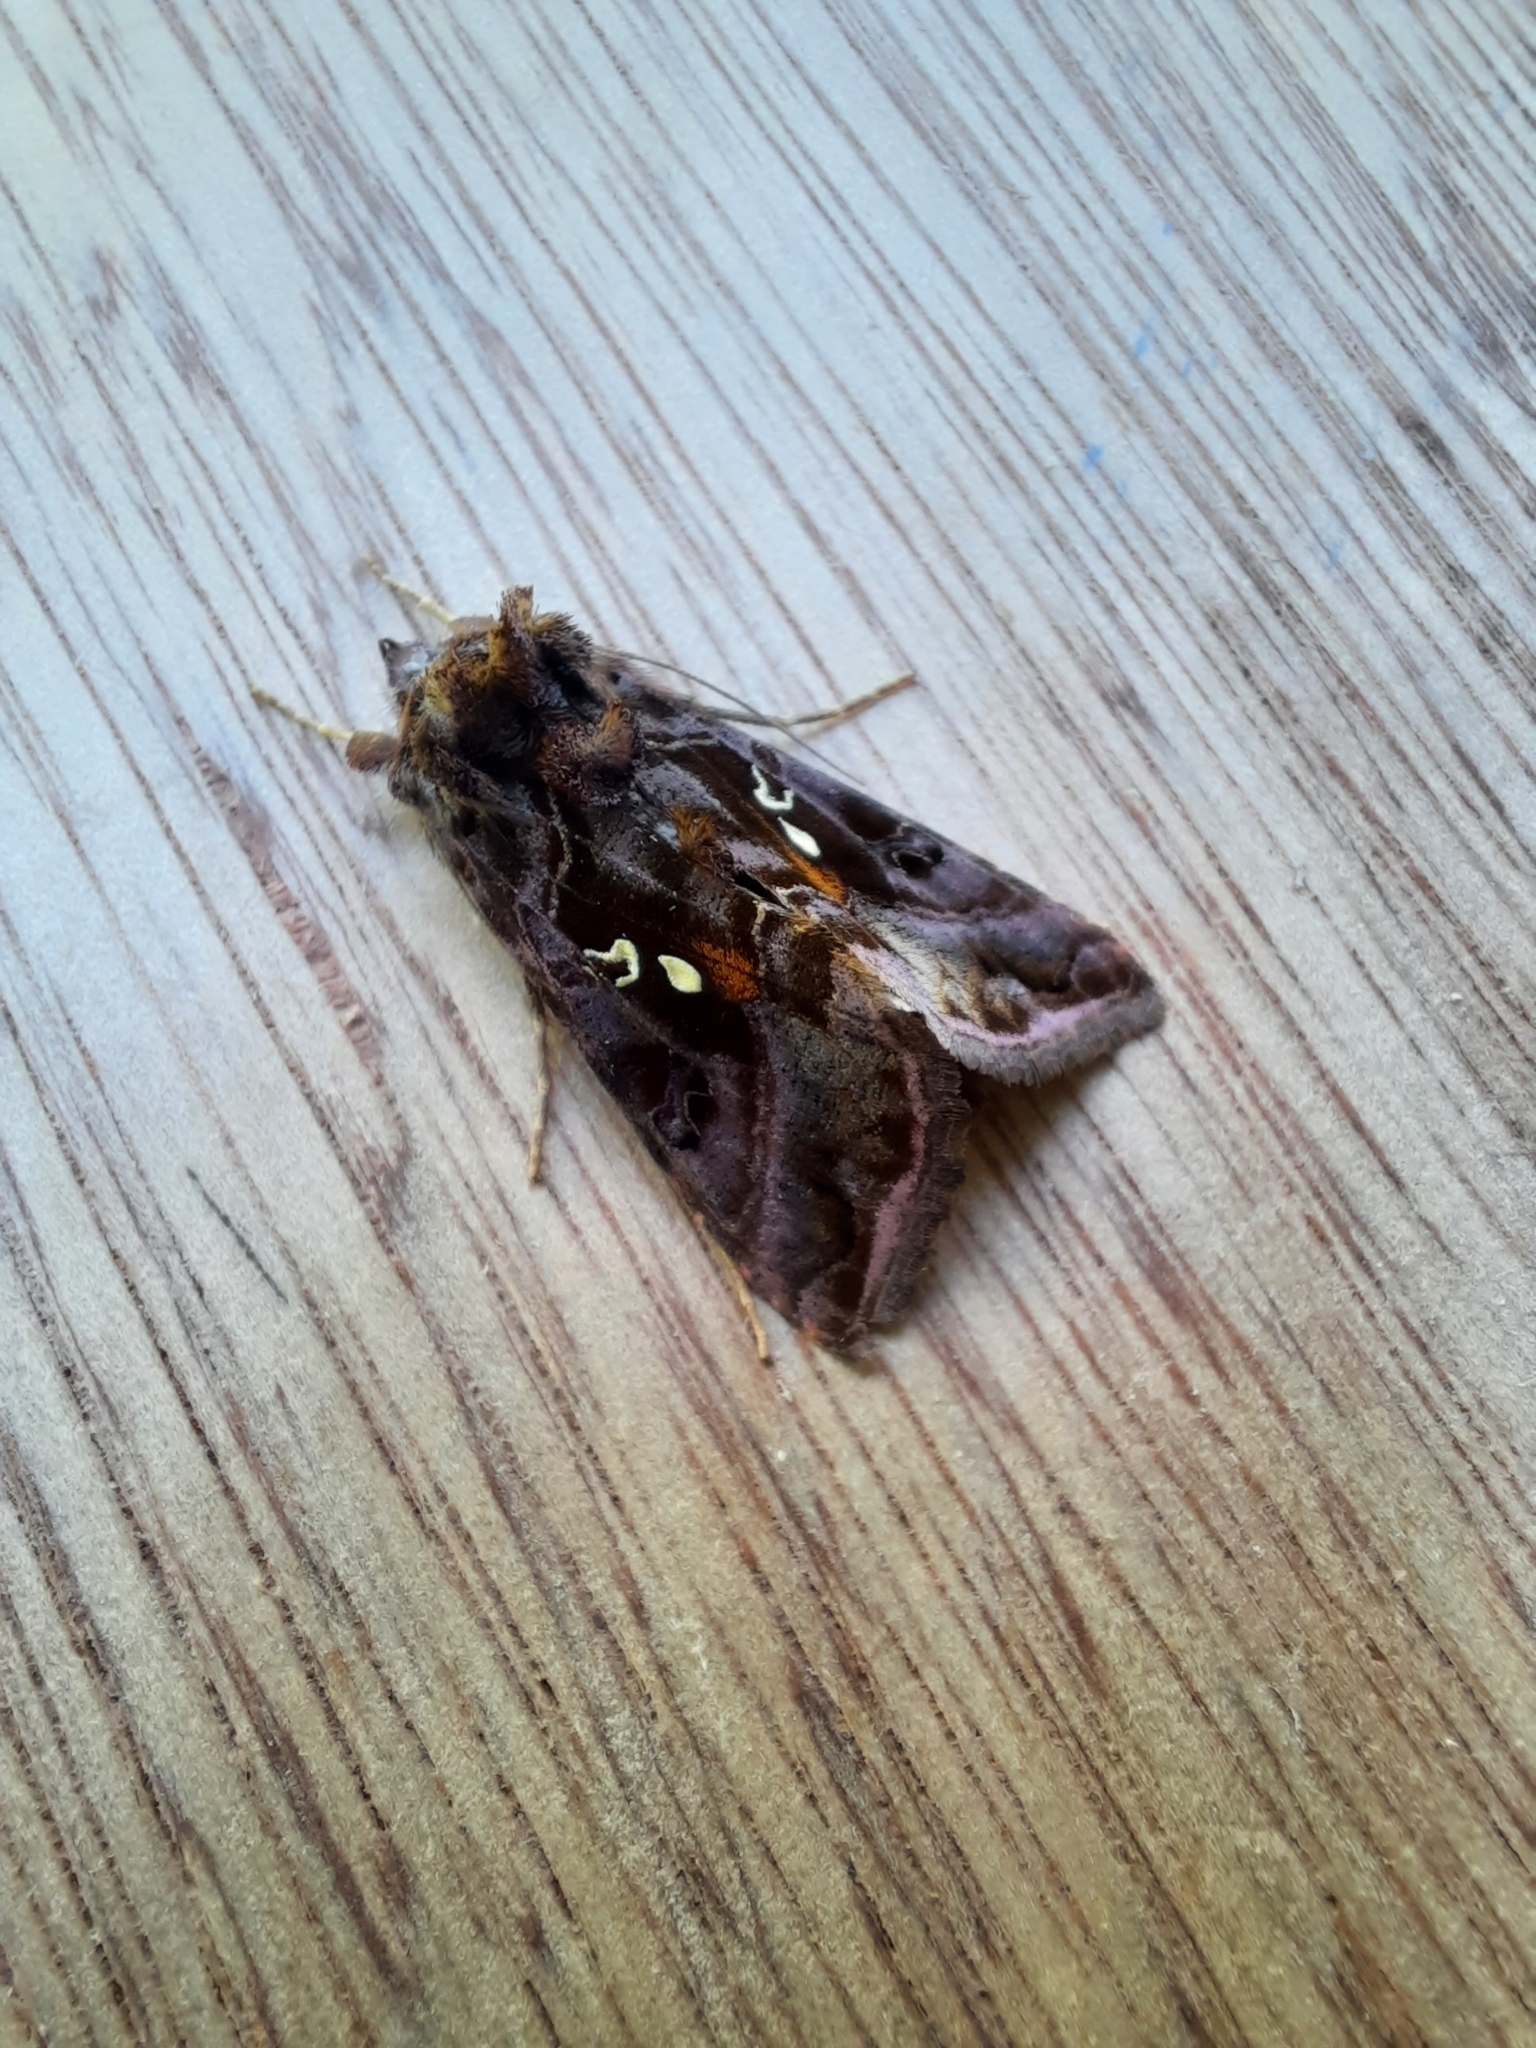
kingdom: Animalia
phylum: Arthropoda
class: Insecta
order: Lepidoptera
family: Noctuidae
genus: Autographa
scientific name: Autographa pulchrina
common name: Beautiful golden y
